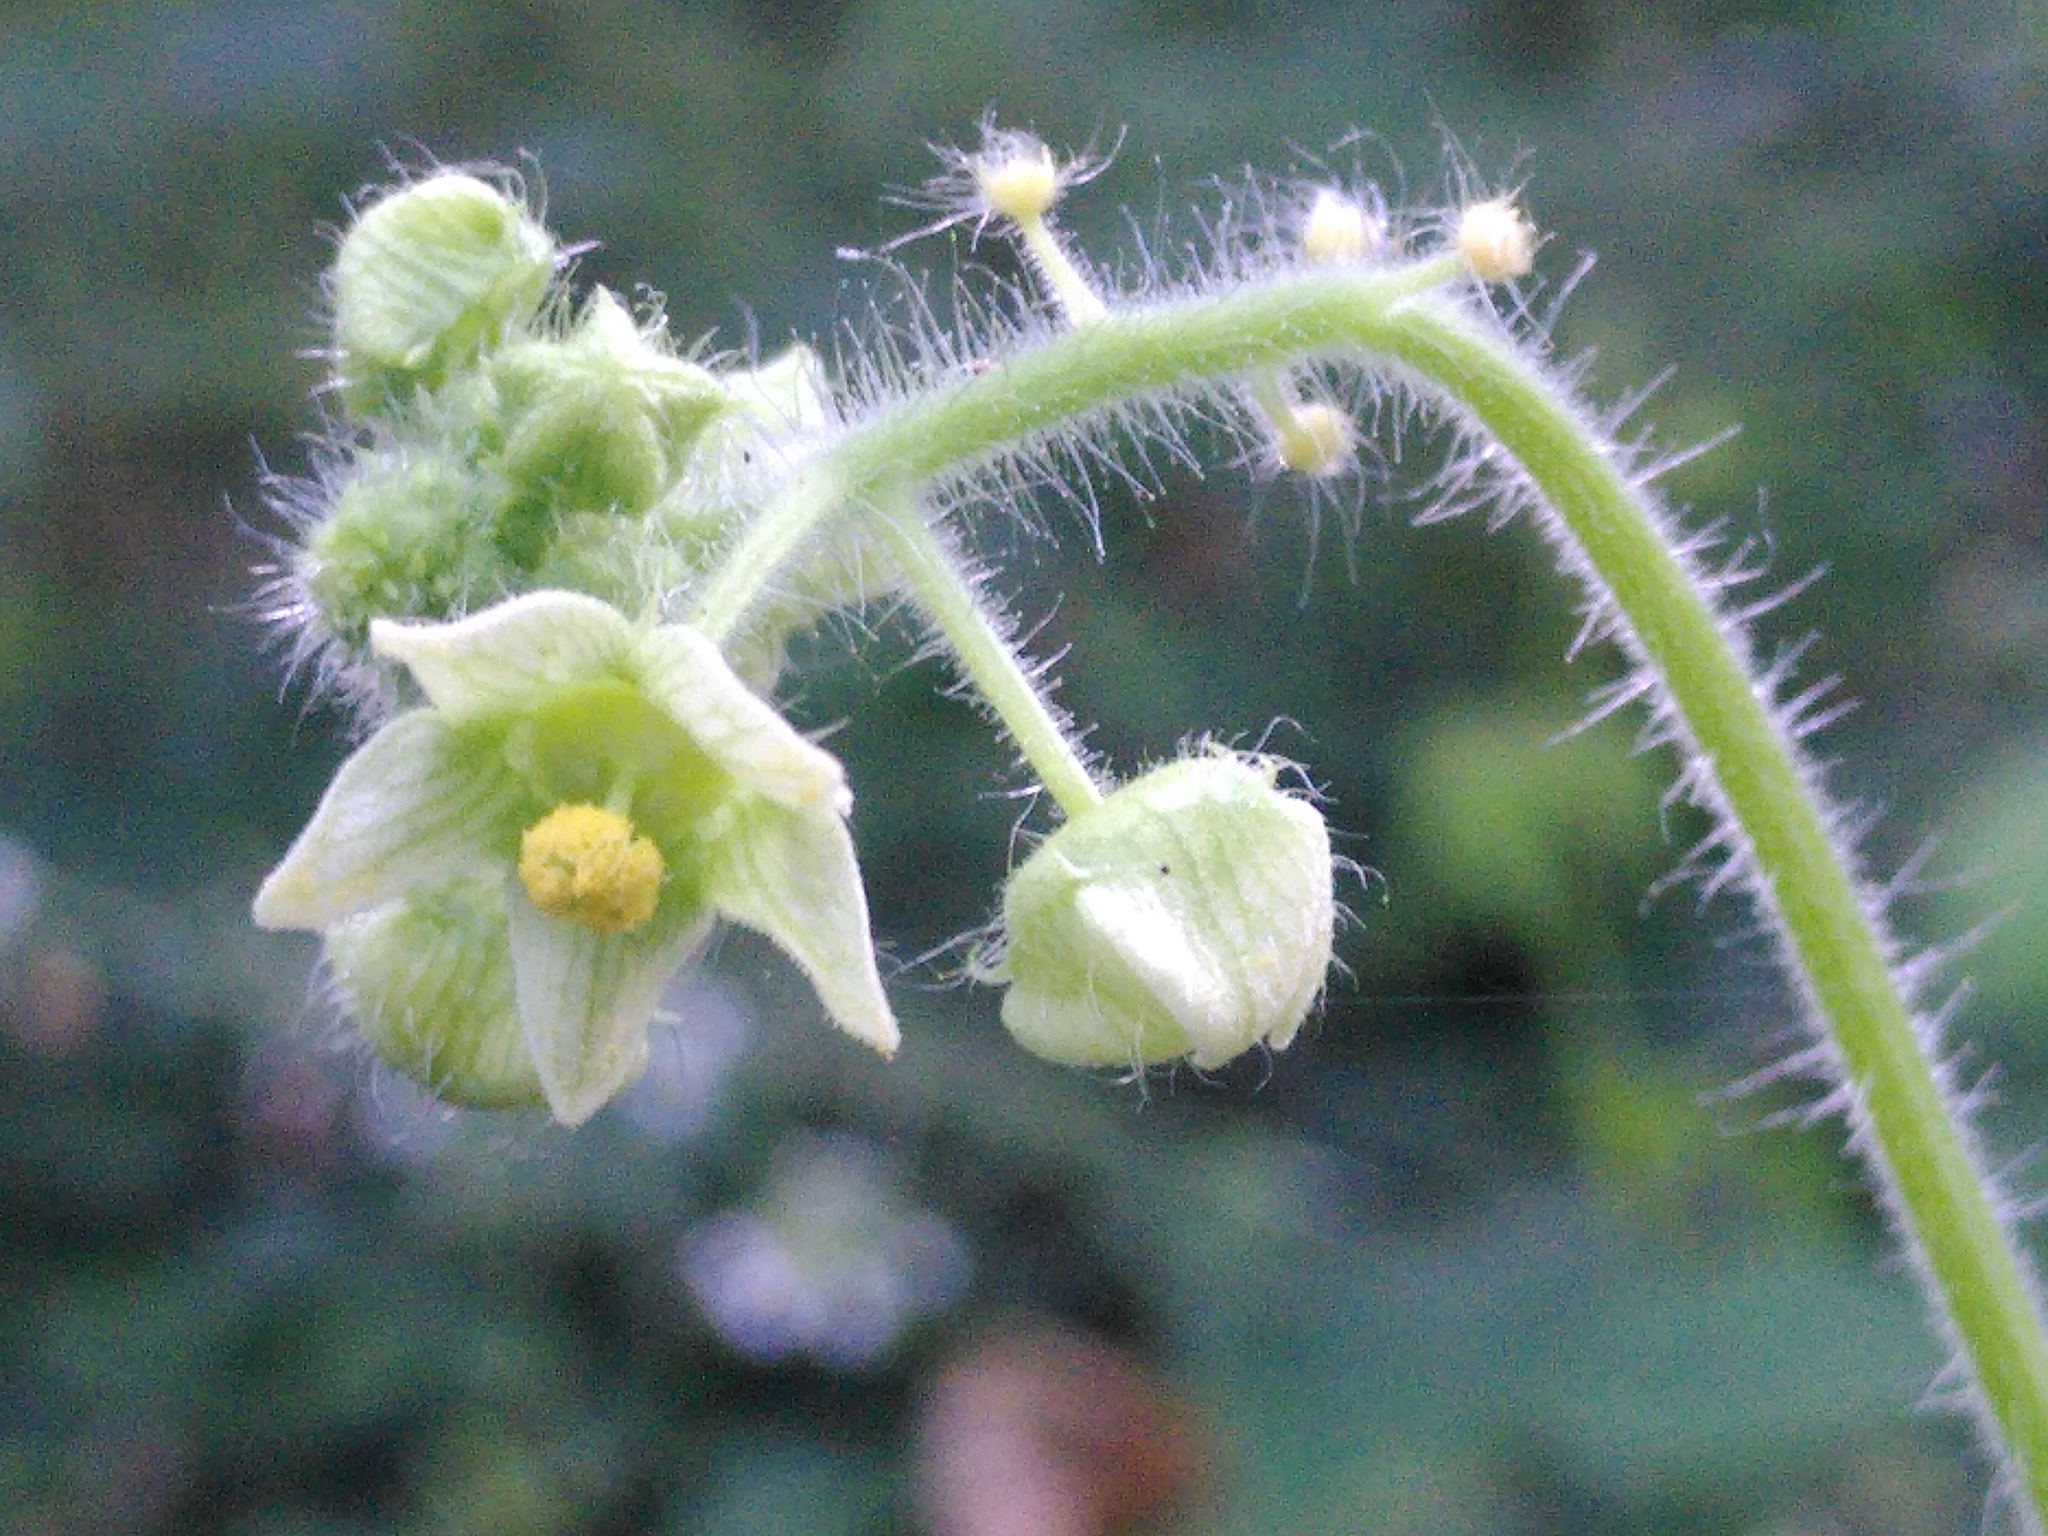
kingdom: Plantae
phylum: Tracheophyta
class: Magnoliopsida
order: Cucurbitales
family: Cucurbitaceae
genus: Sicyos
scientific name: Sicyos angulatus
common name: Angled burr cucumber
